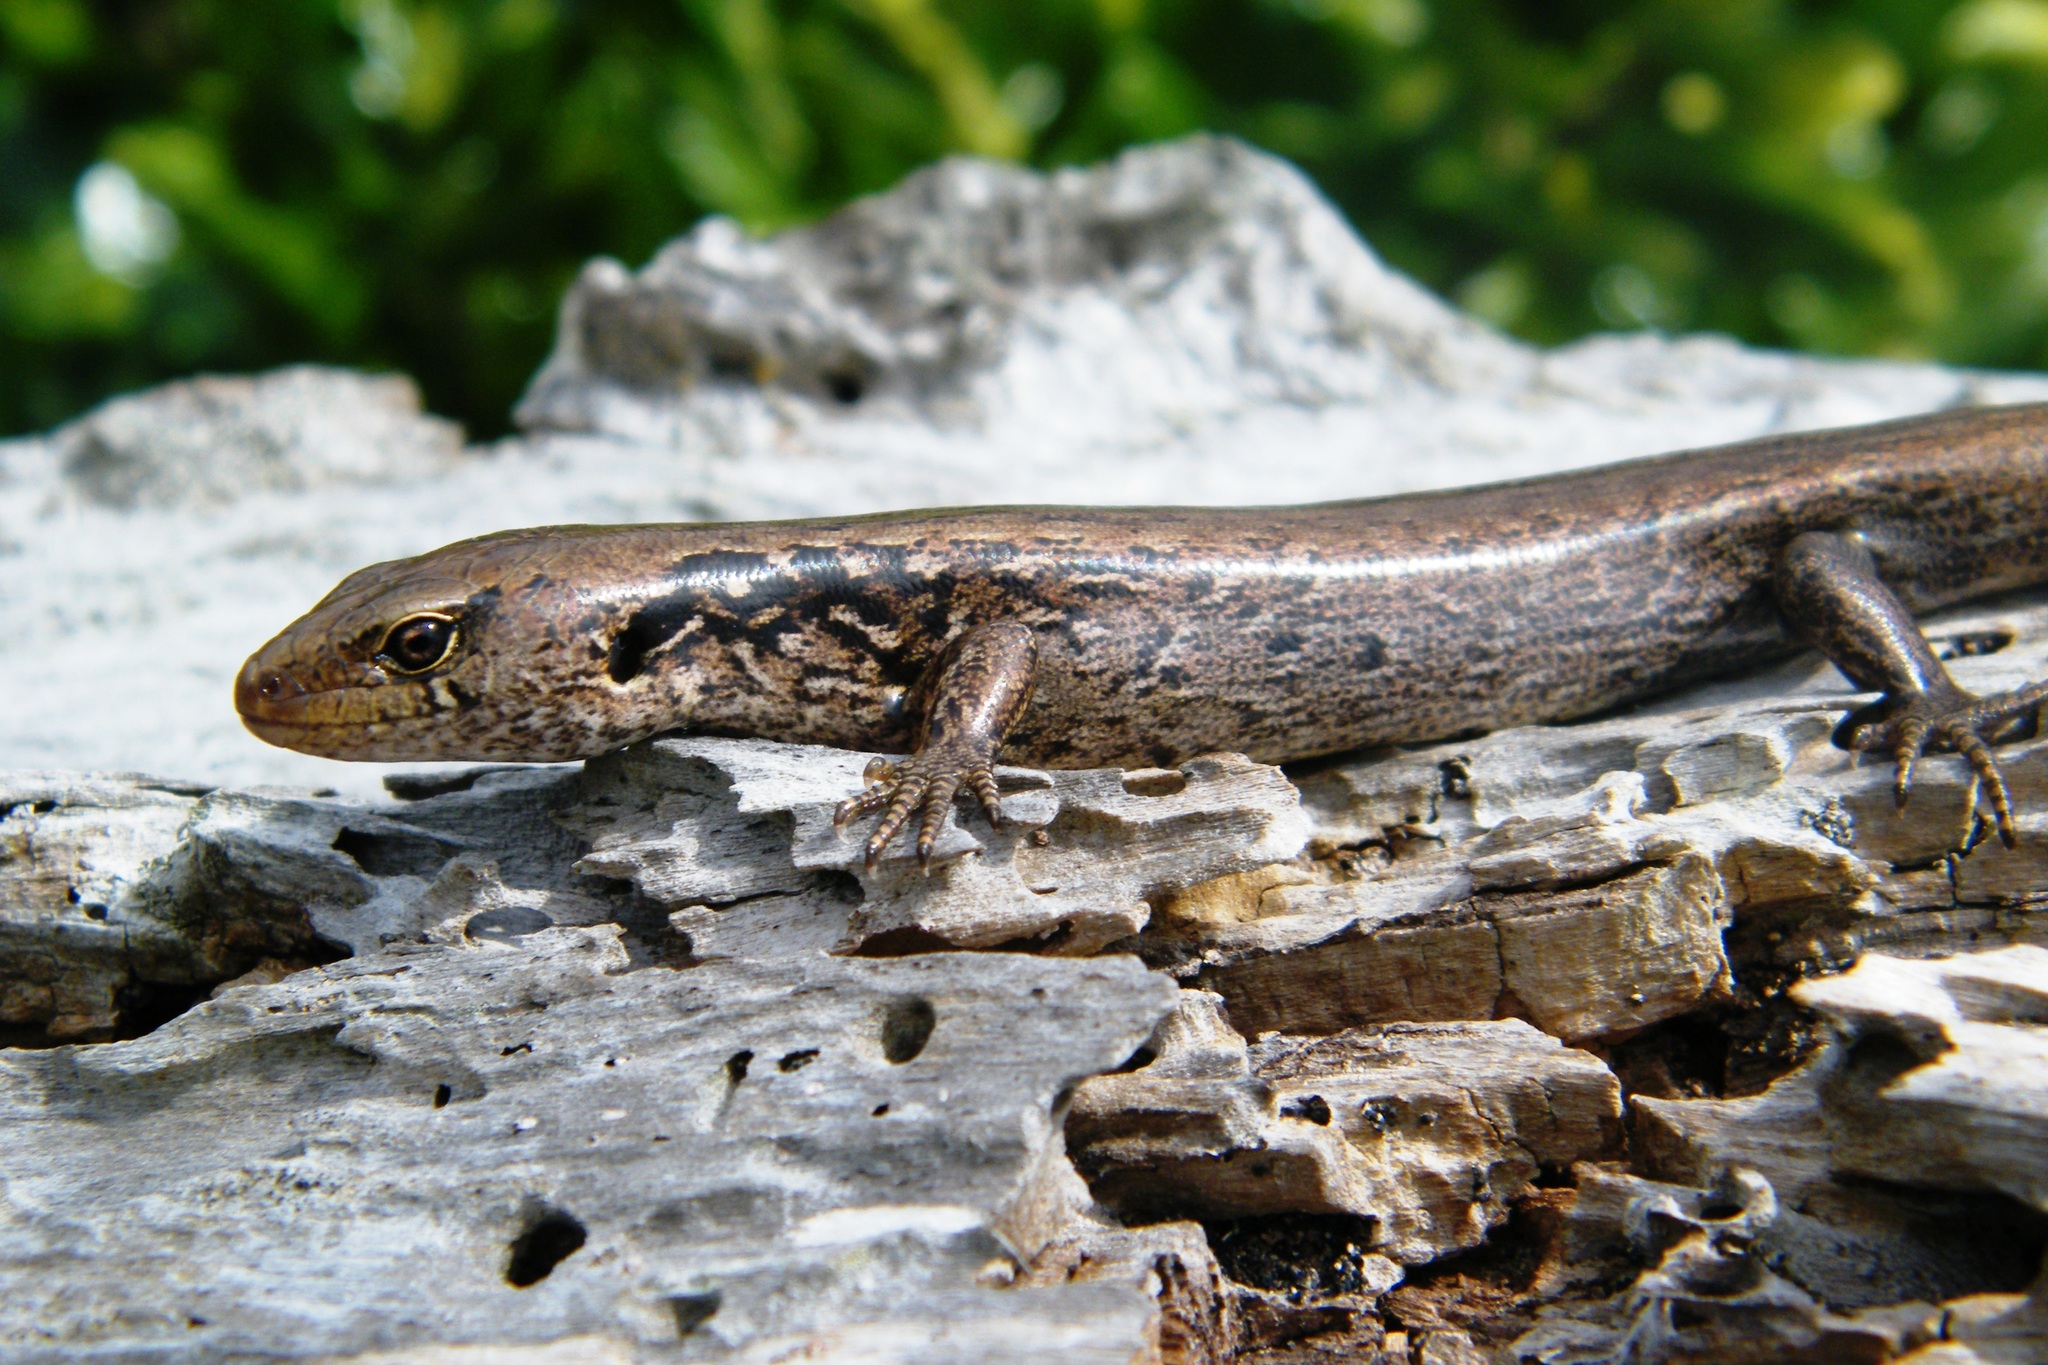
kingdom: Animalia
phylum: Chordata
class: Squamata
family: Scincidae
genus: Oligosoma
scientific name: Oligosoma macgregori
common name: Macgregor's skink
